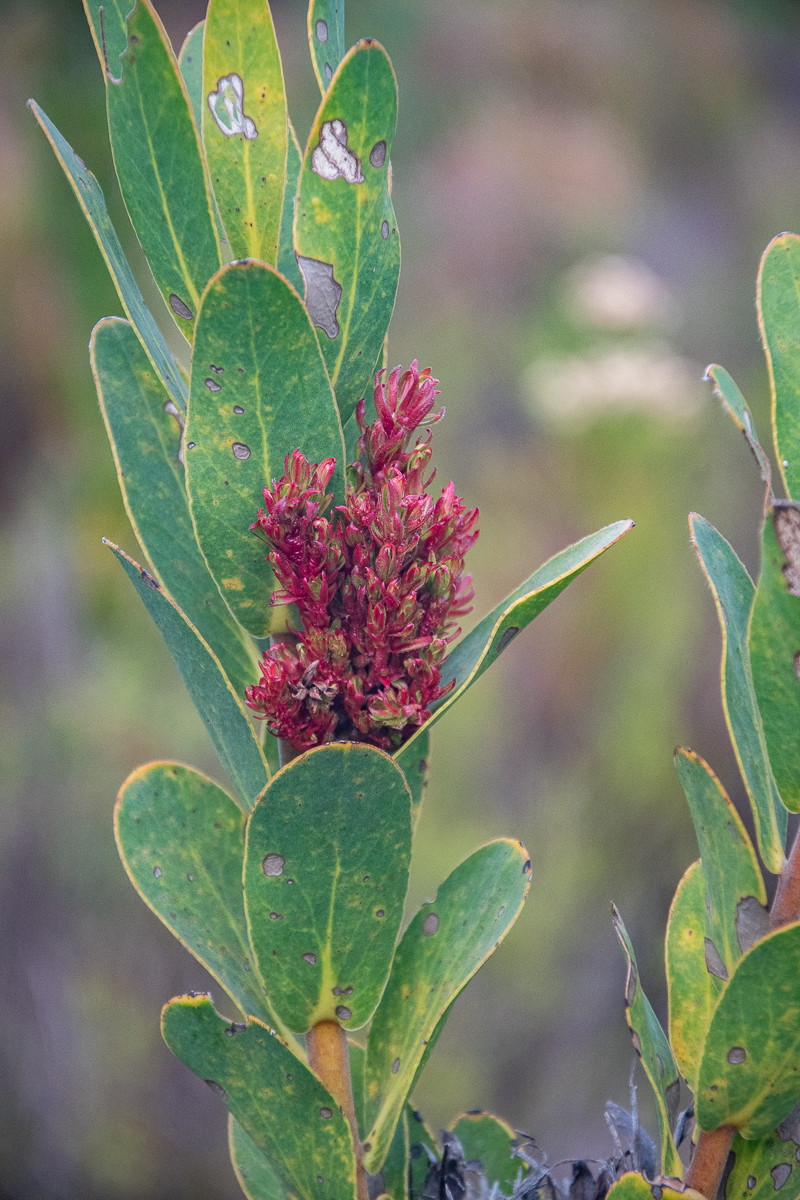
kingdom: Bacteria
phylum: Firmicutes
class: Bacilli
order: Acholeplasmatales
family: Acholeplasmataceae
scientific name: Acholeplasmataceae
